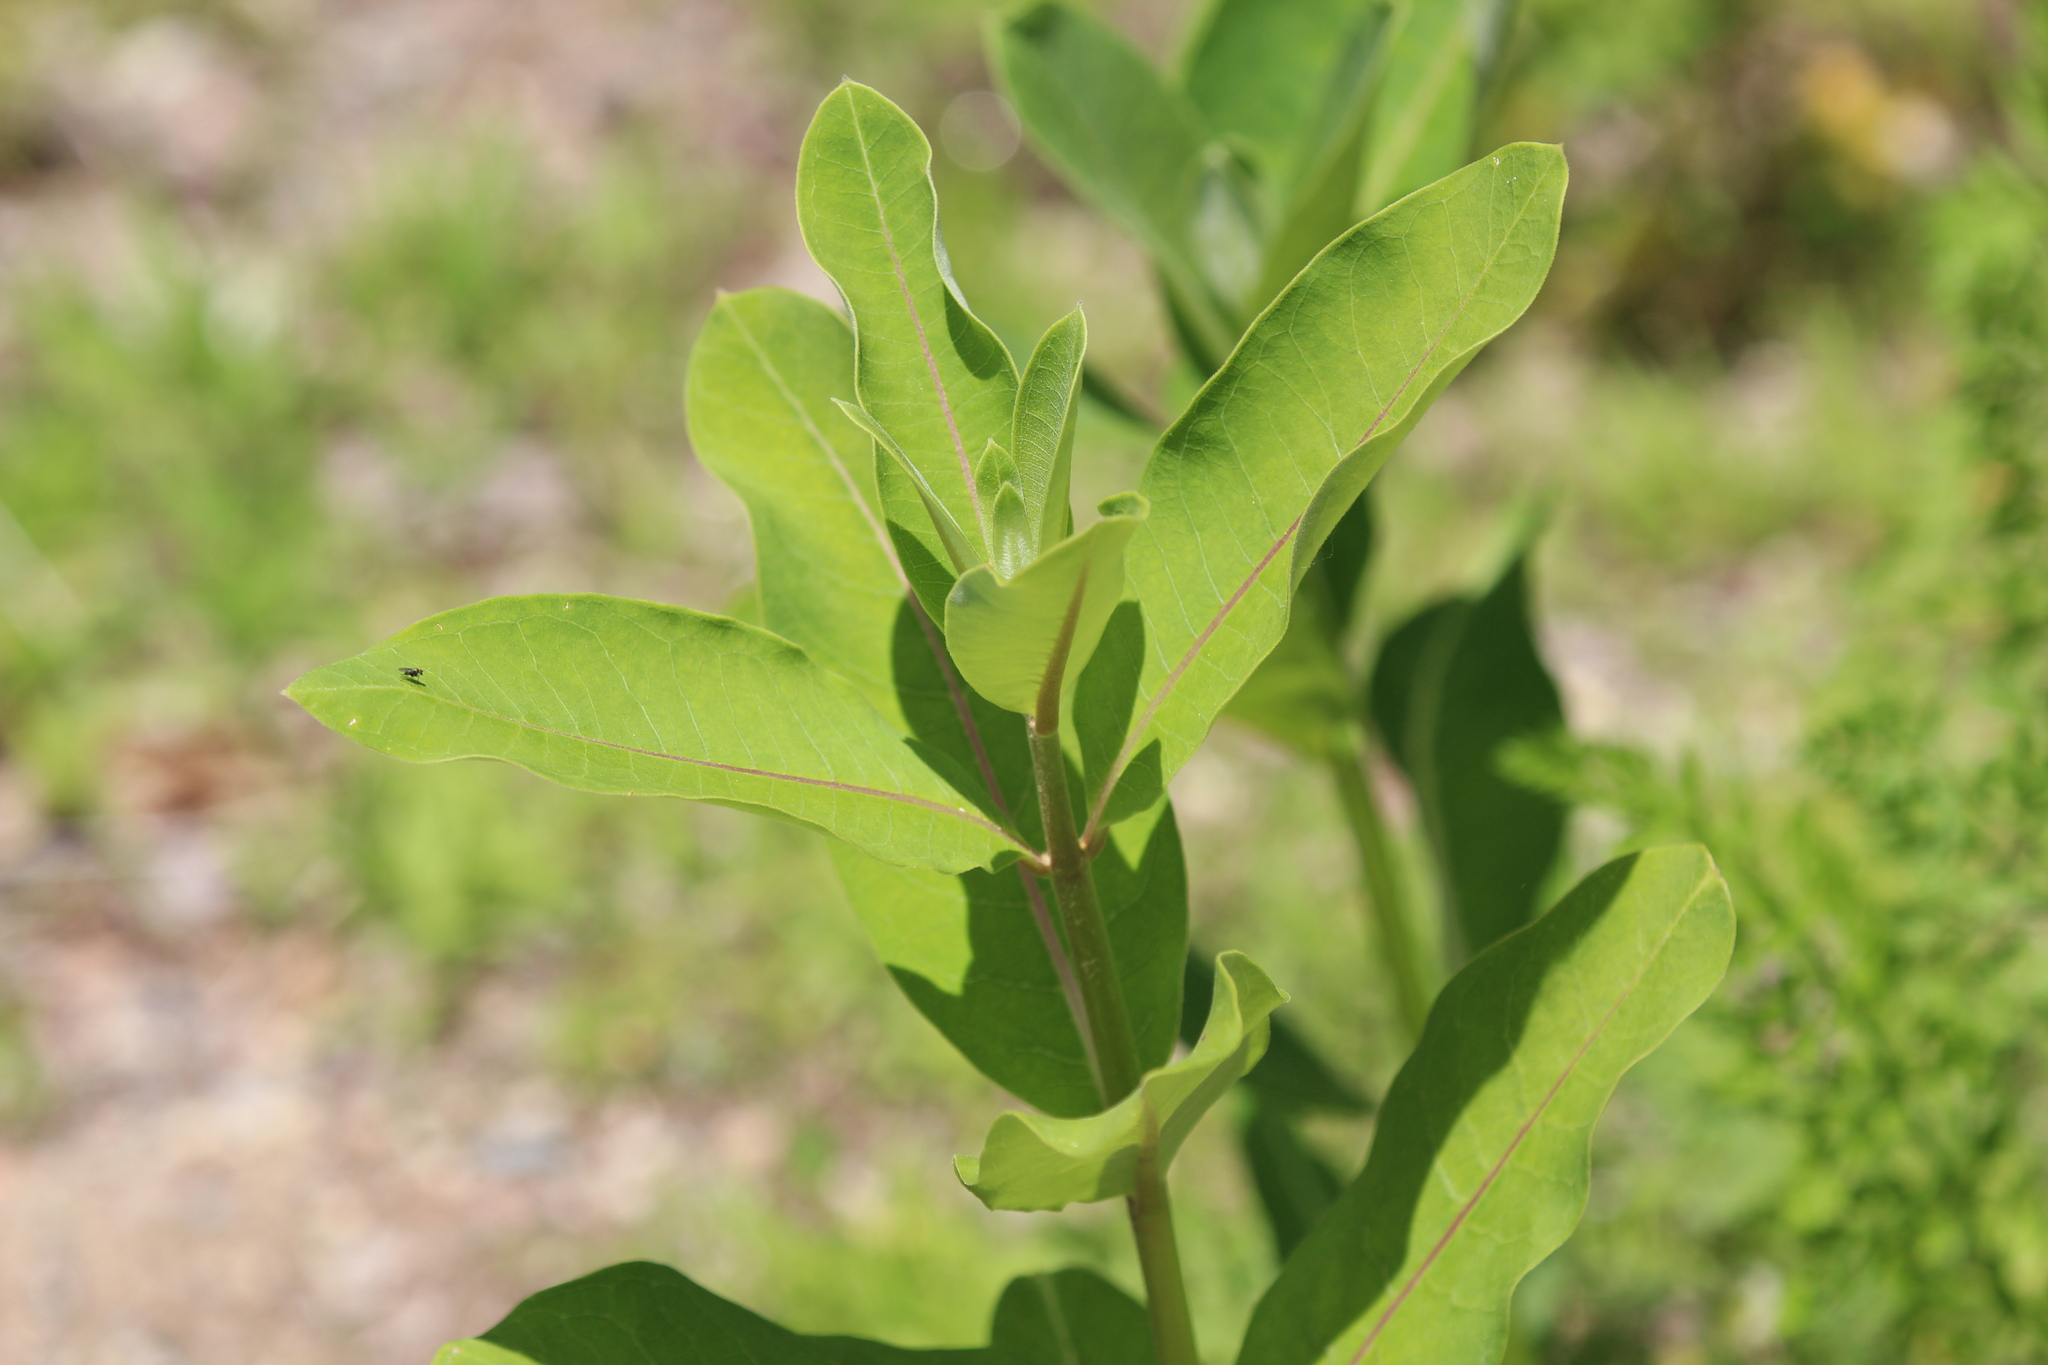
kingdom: Plantae
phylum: Tracheophyta
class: Magnoliopsida
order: Gentianales
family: Apocynaceae
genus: Asclepias
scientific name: Asclepias syriaca
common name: Common milkweed
